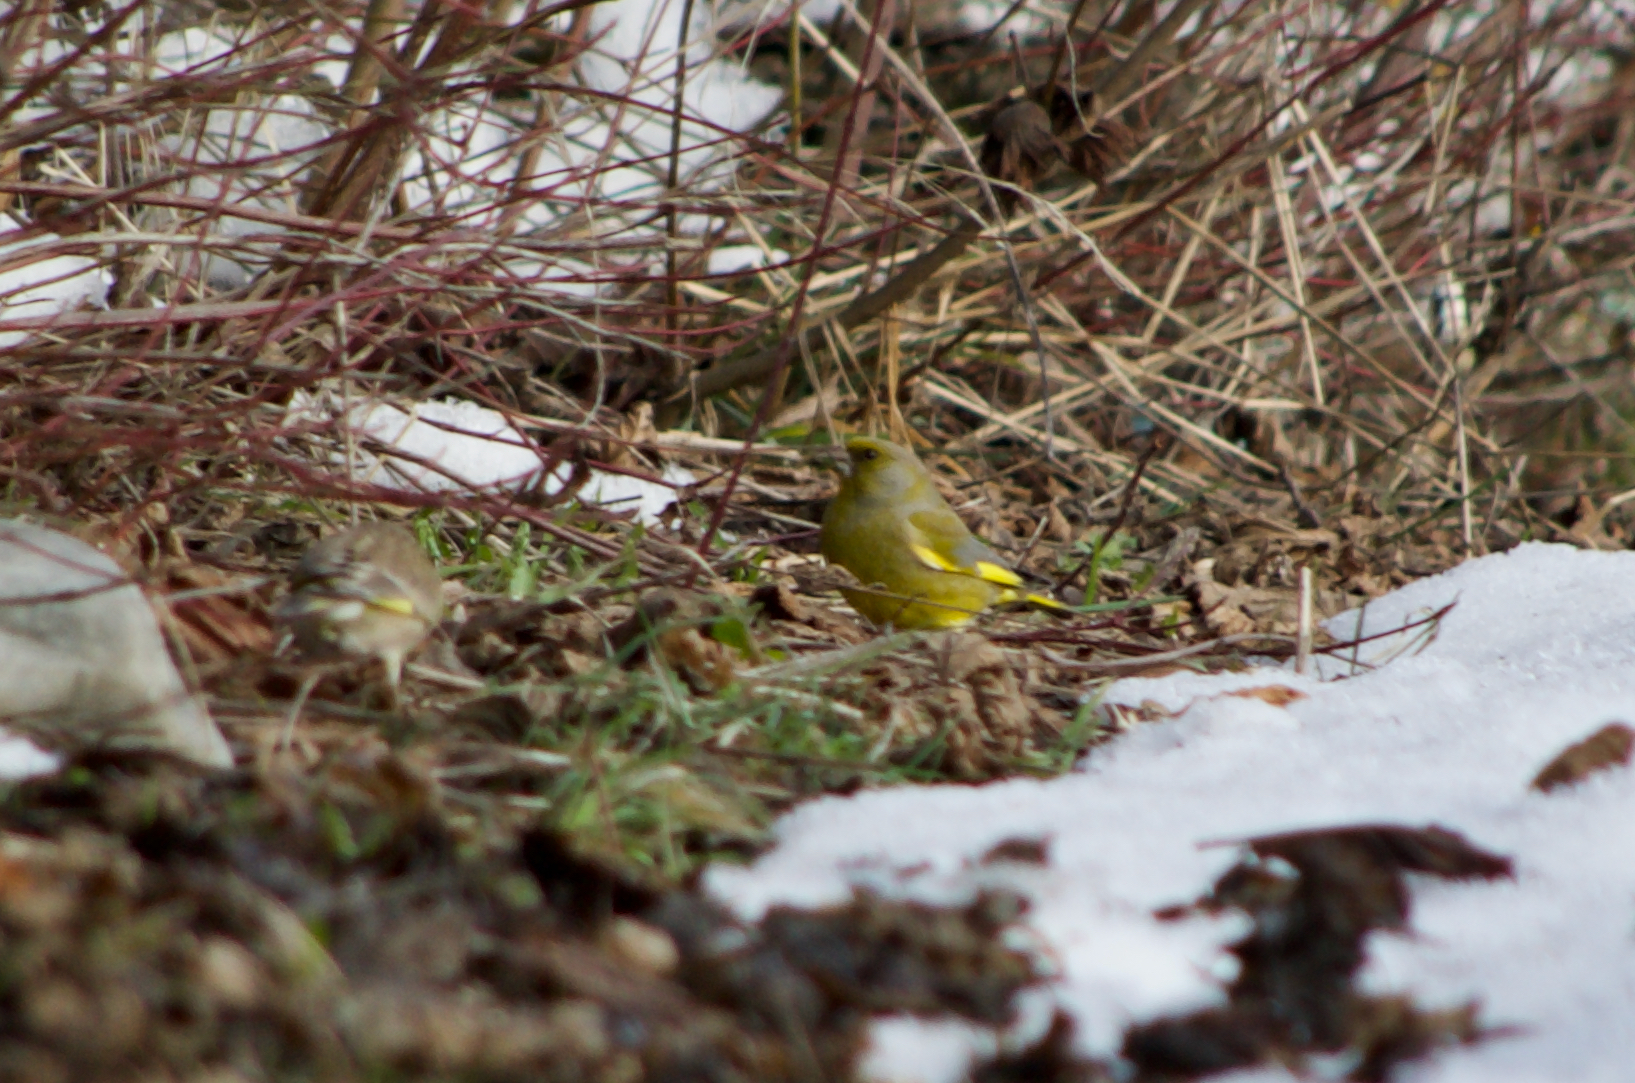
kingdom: Plantae
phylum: Tracheophyta
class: Liliopsida
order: Poales
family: Poaceae
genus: Chloris
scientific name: Chloris chloris
